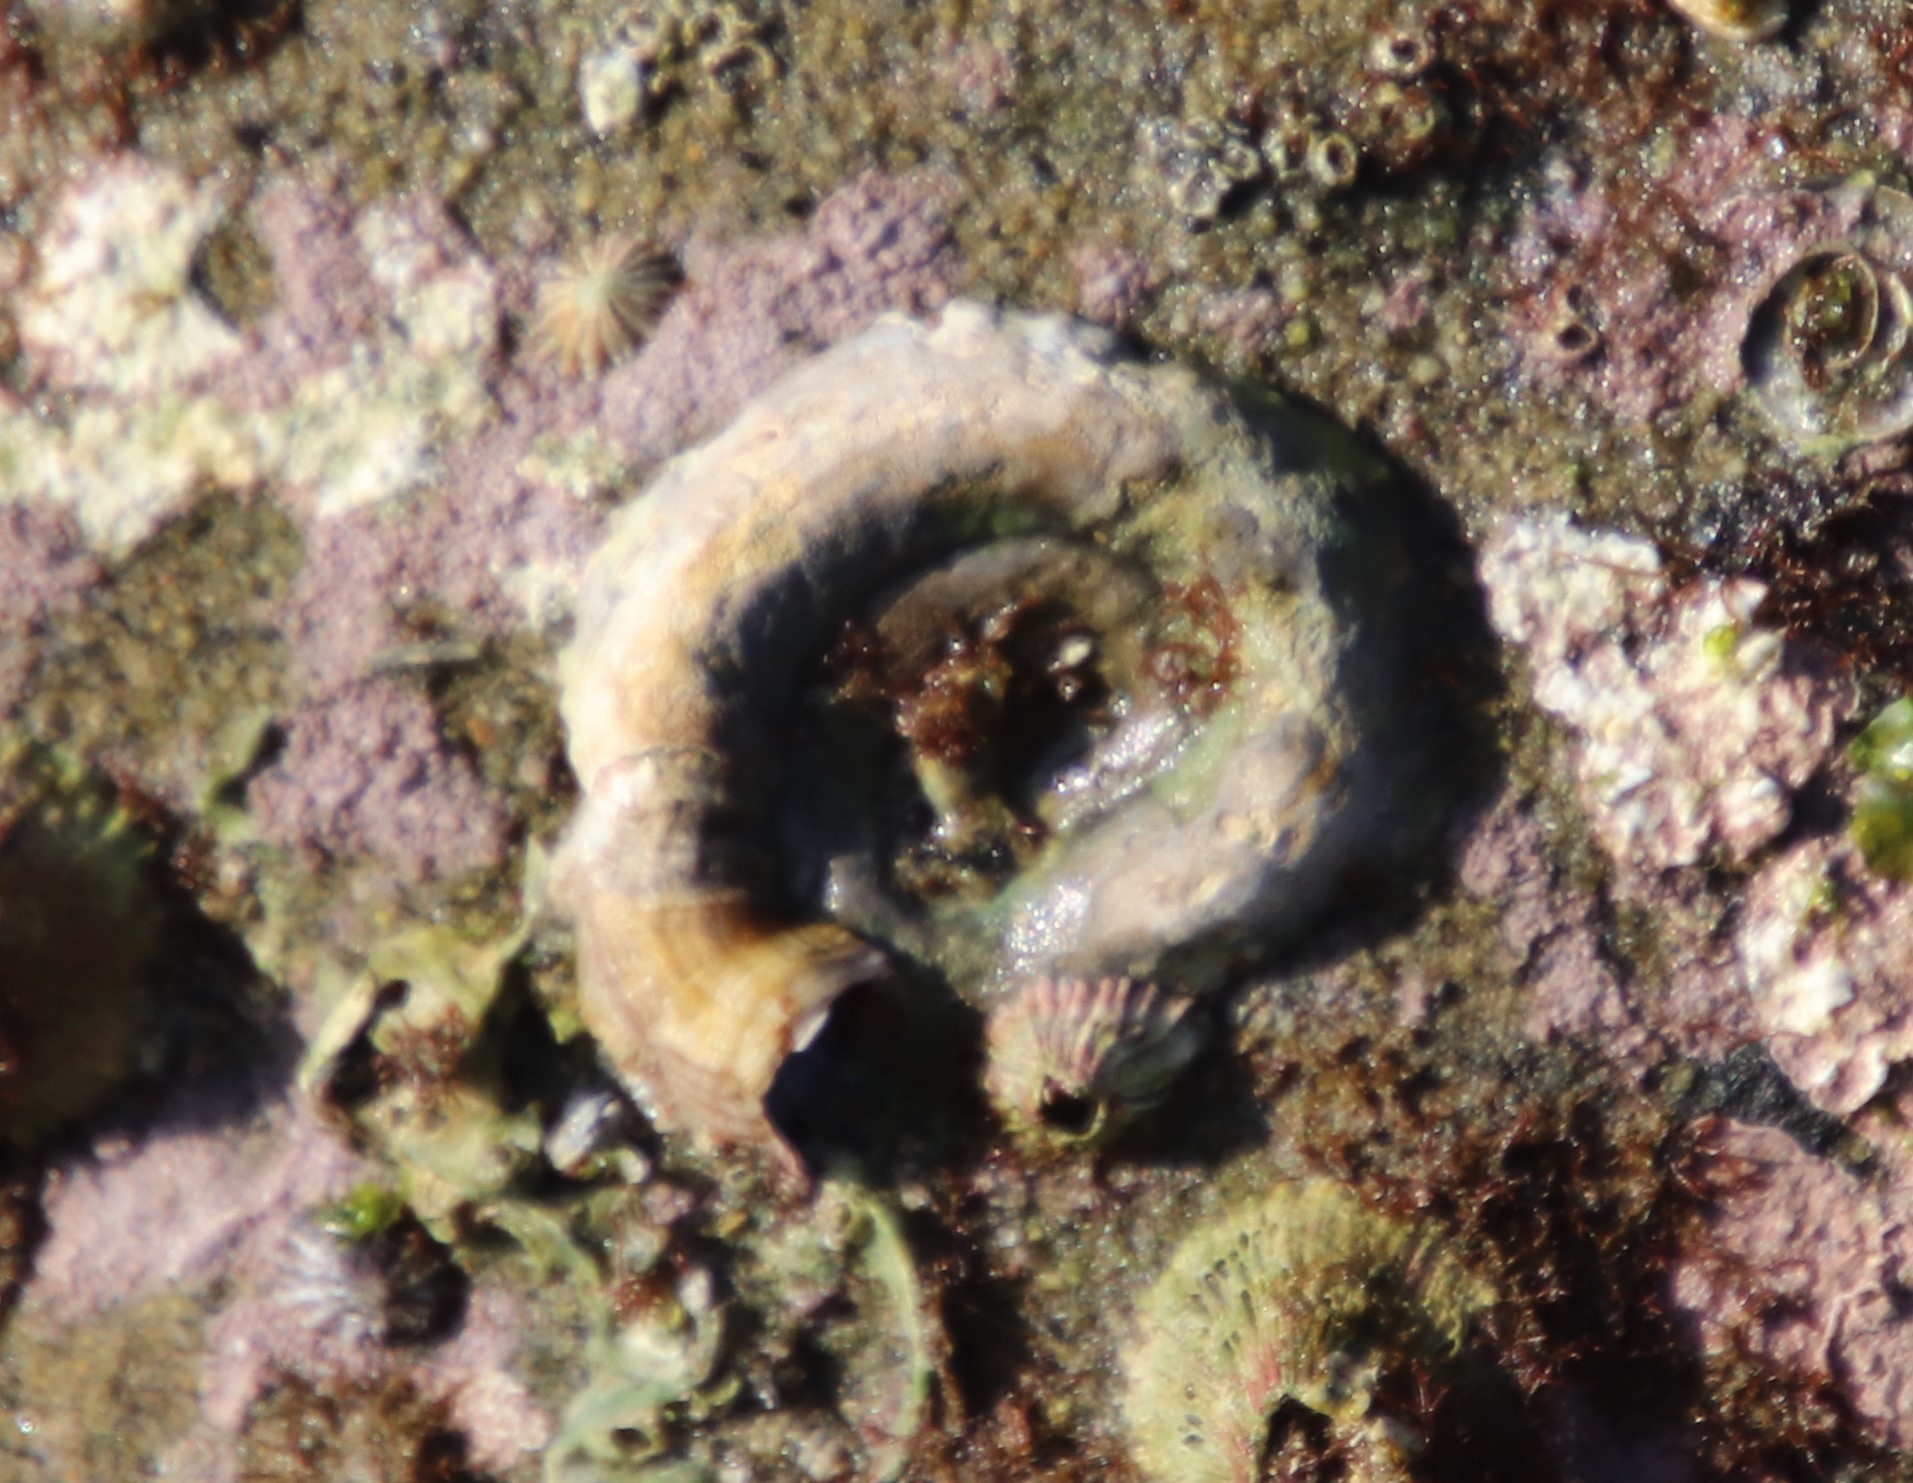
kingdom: Animalia
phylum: Mollusca
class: Gastropoda
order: Littorinimorpha
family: Vermetidae
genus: Thylacodes
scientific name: Thylacodes squamigerus
